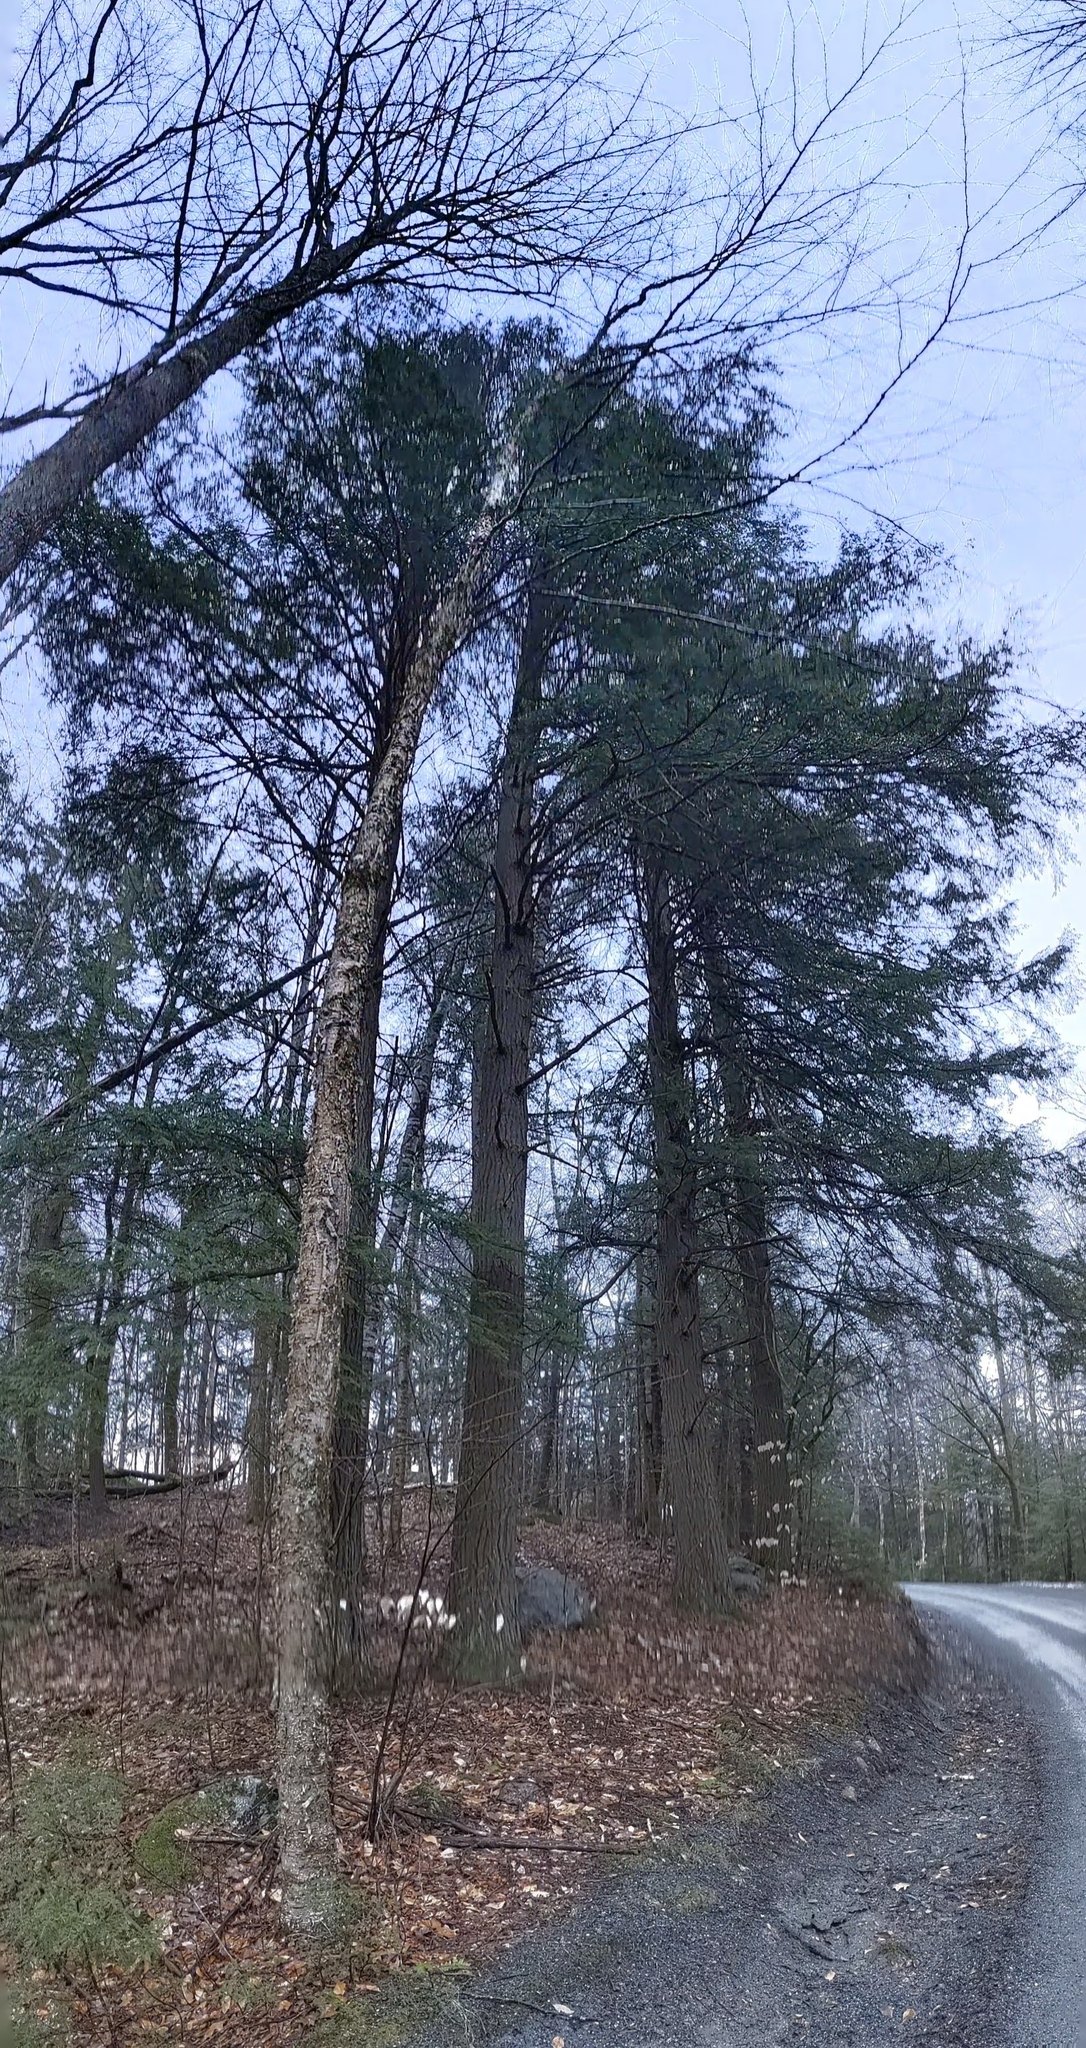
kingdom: Plantae
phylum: Tracheophyta
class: Magnoliopsida
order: Fagales
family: Betulaceae
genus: Betula
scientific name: Betula alleghaniensis
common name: Yellow birch
